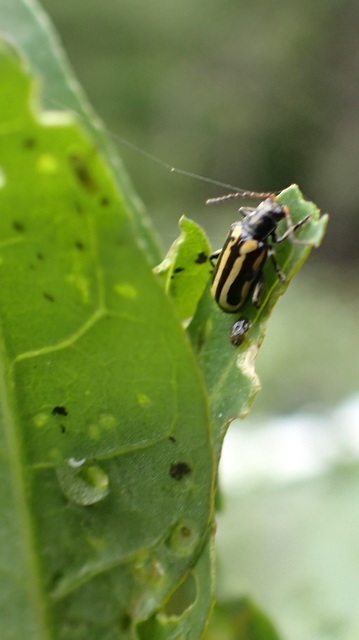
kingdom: Animalia
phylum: Arthropoda
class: Insecta
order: Coleoptera
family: Chrysomelidae
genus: Agasicles
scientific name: Agasicles hygrophila
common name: Alligatorweed flea beetle
